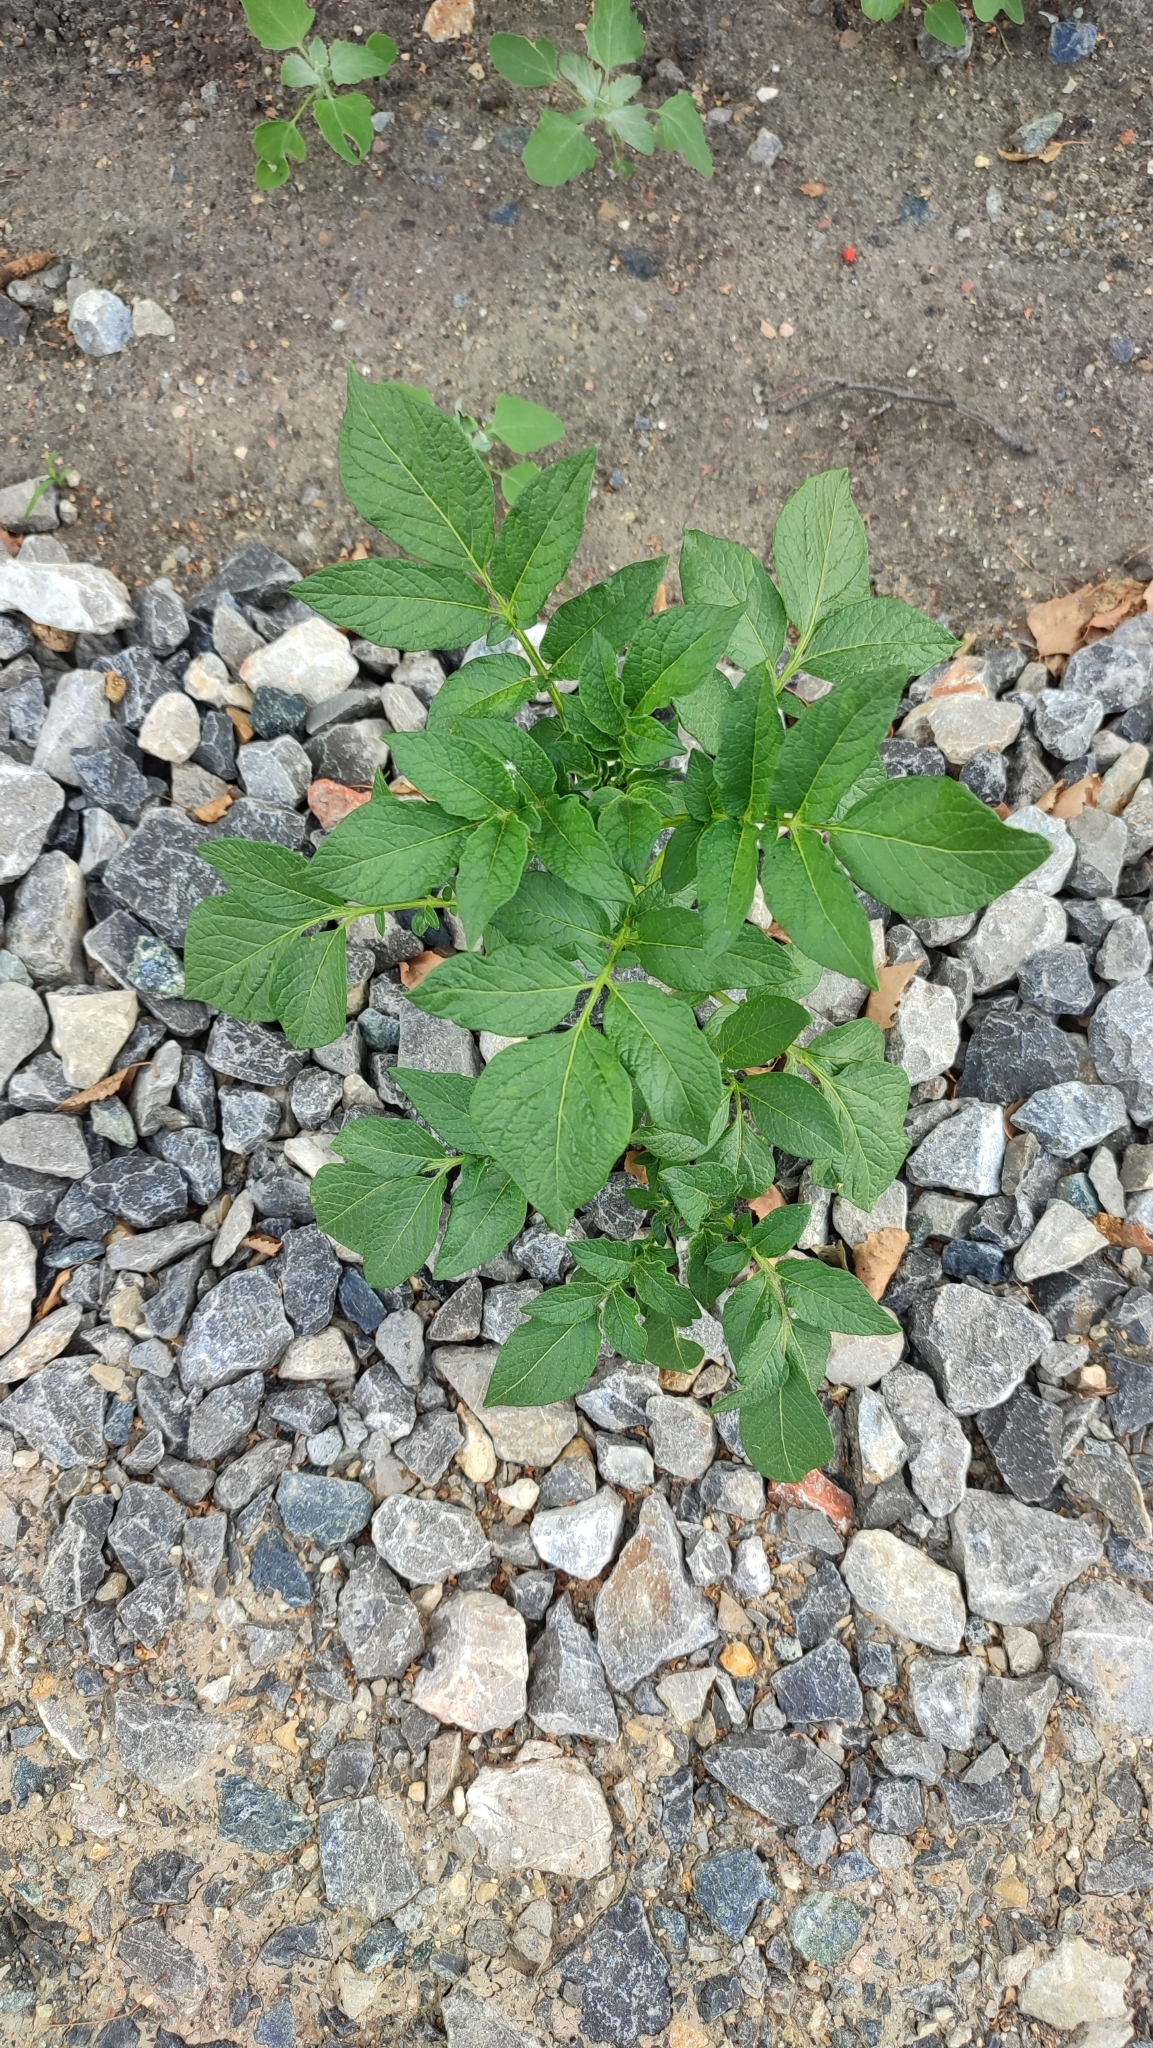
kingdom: Plantae
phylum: Tracheophyta
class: Magnoliopsida
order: Solanales
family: Solanaceae
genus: Solanum
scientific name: Solanum tuberosum
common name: Potato
